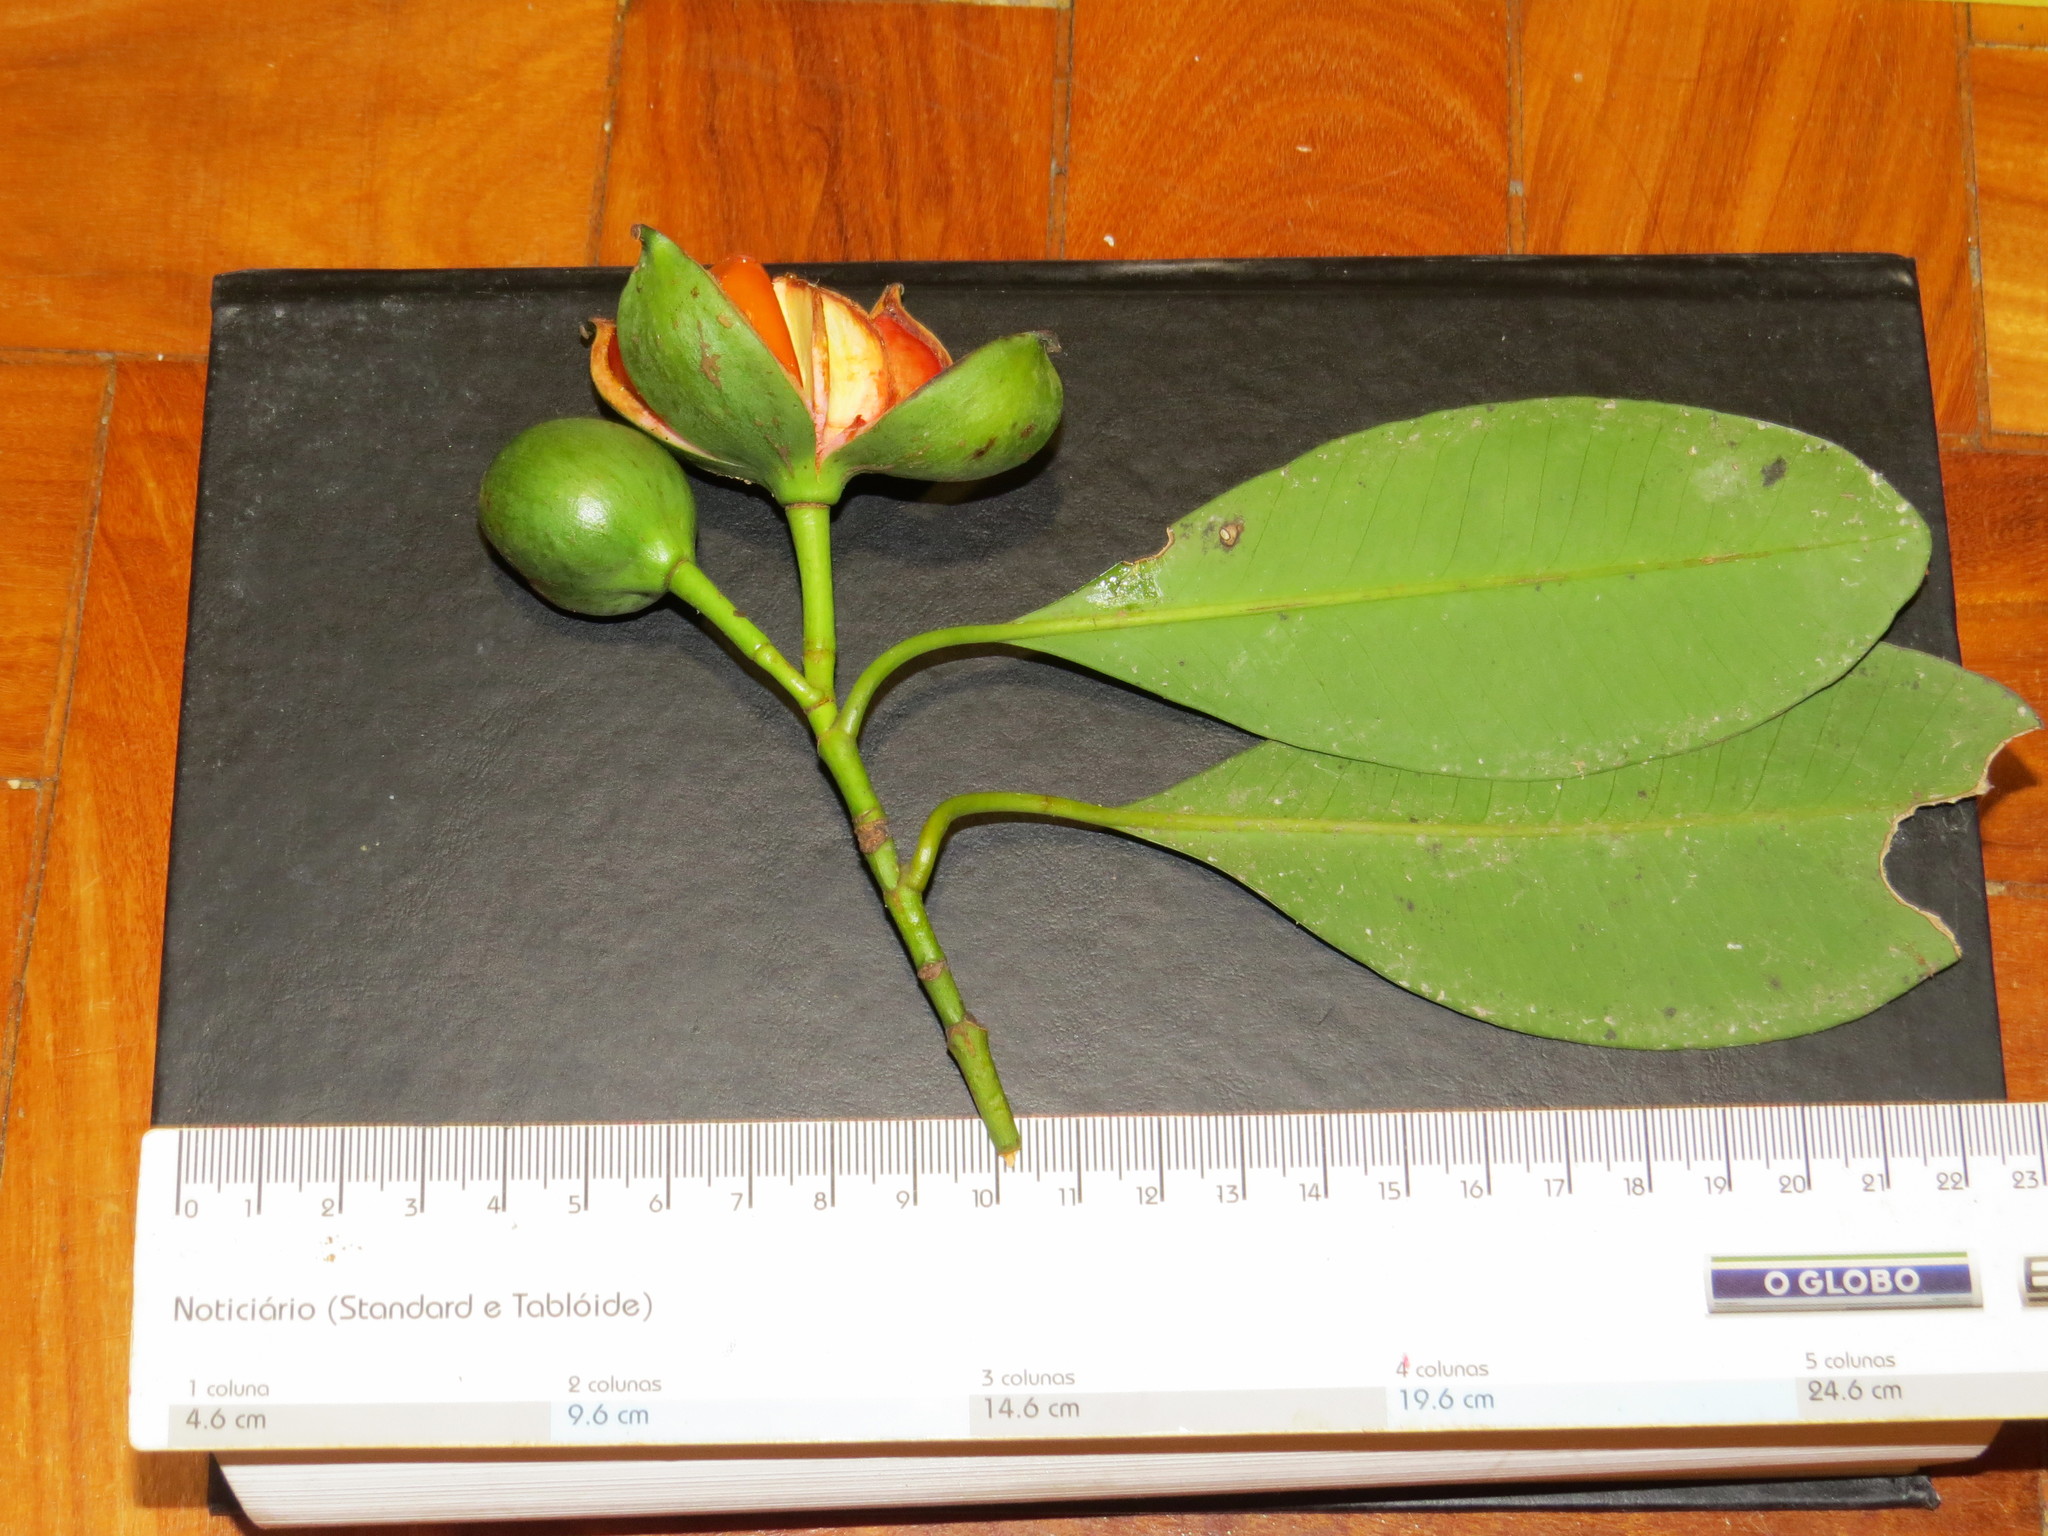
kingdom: Plantae
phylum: Tracheophyta
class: Magnoliopsida
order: Malpighiales
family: Clusiaceae
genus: Tovomita
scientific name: Tovomita leucantha
